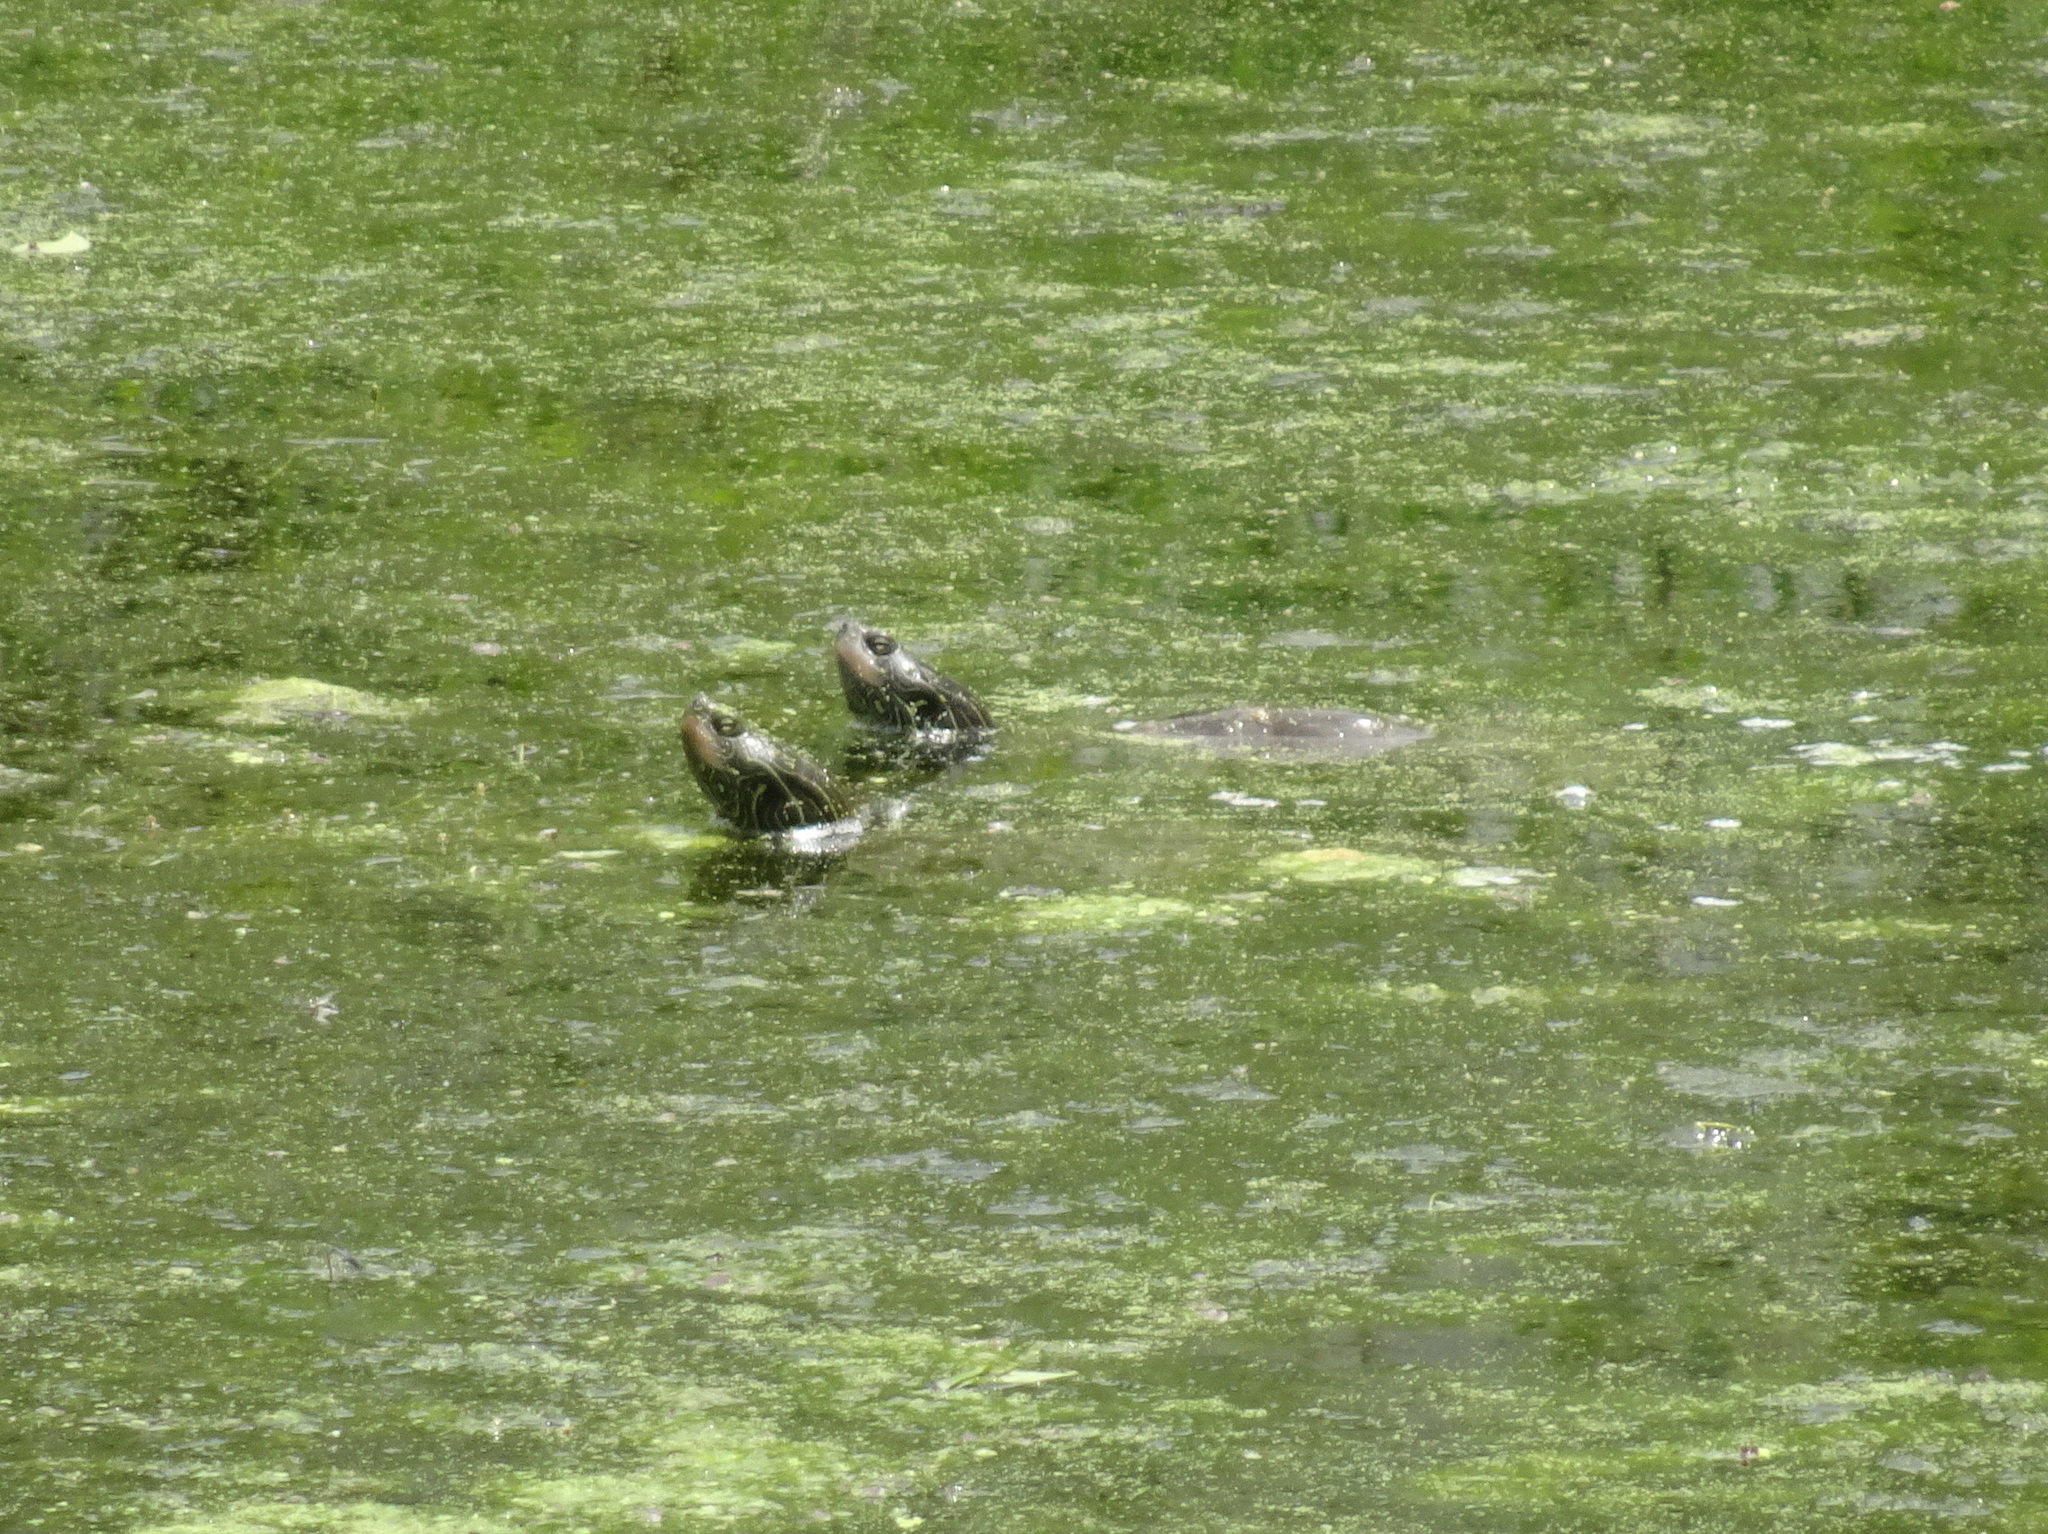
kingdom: Animalia
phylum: Chordata
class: Testudines
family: Emydidae
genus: Graptemys
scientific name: Graptemys geographica
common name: Common map turtle
